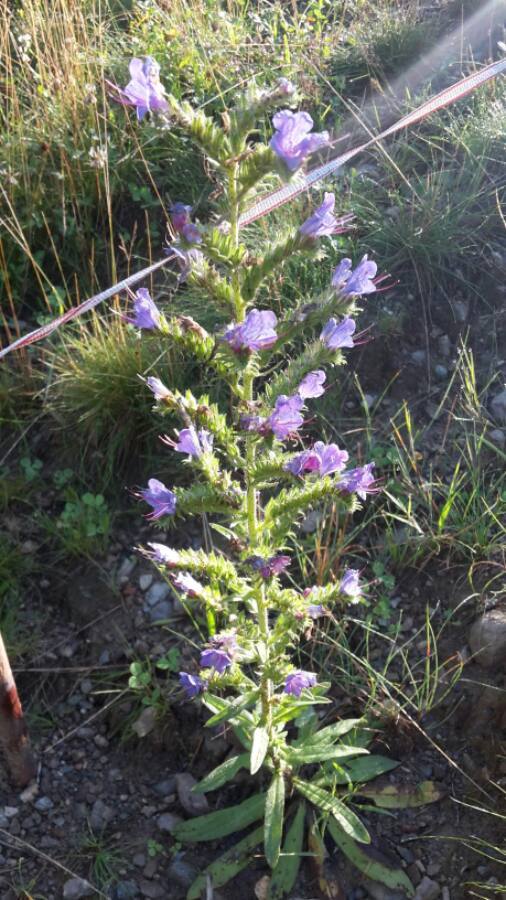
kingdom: Plantae
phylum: Tracheophyta
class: Magnoliopsida
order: Boraginales
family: Boraginaceae
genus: Echium
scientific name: Echium vulgare
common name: Common viper's bugloss
